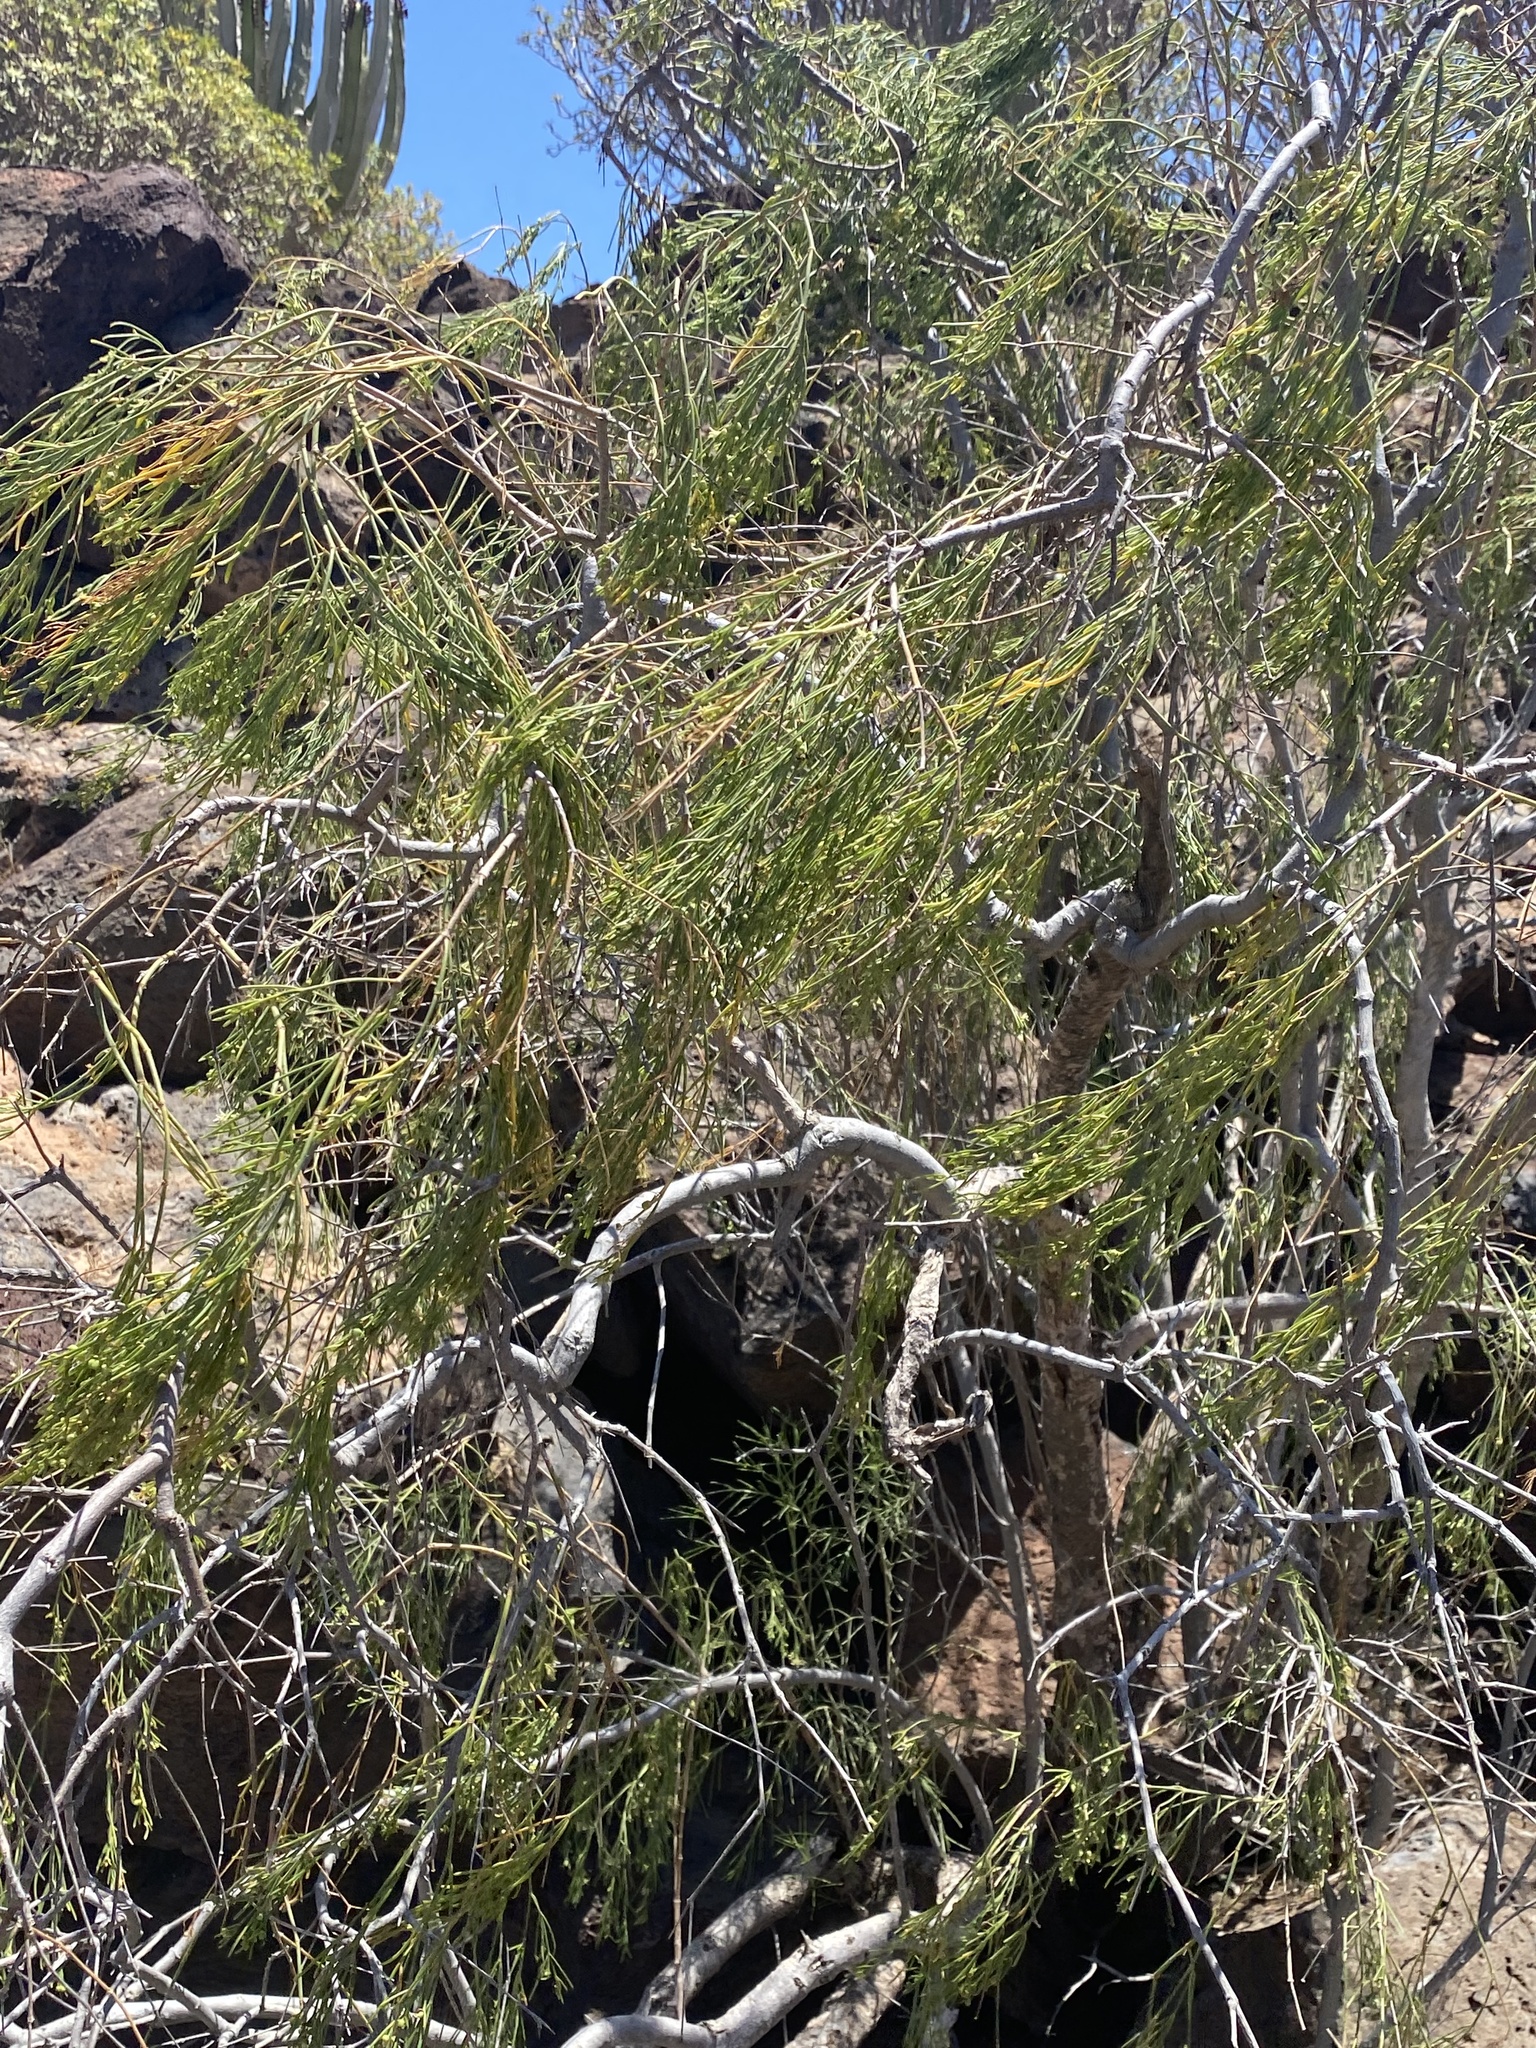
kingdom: Plantae
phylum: Tracheophyta
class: Magnoliopsida
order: Gentianales
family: Rubiaceae
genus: Plocama
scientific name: Plocama pendula
